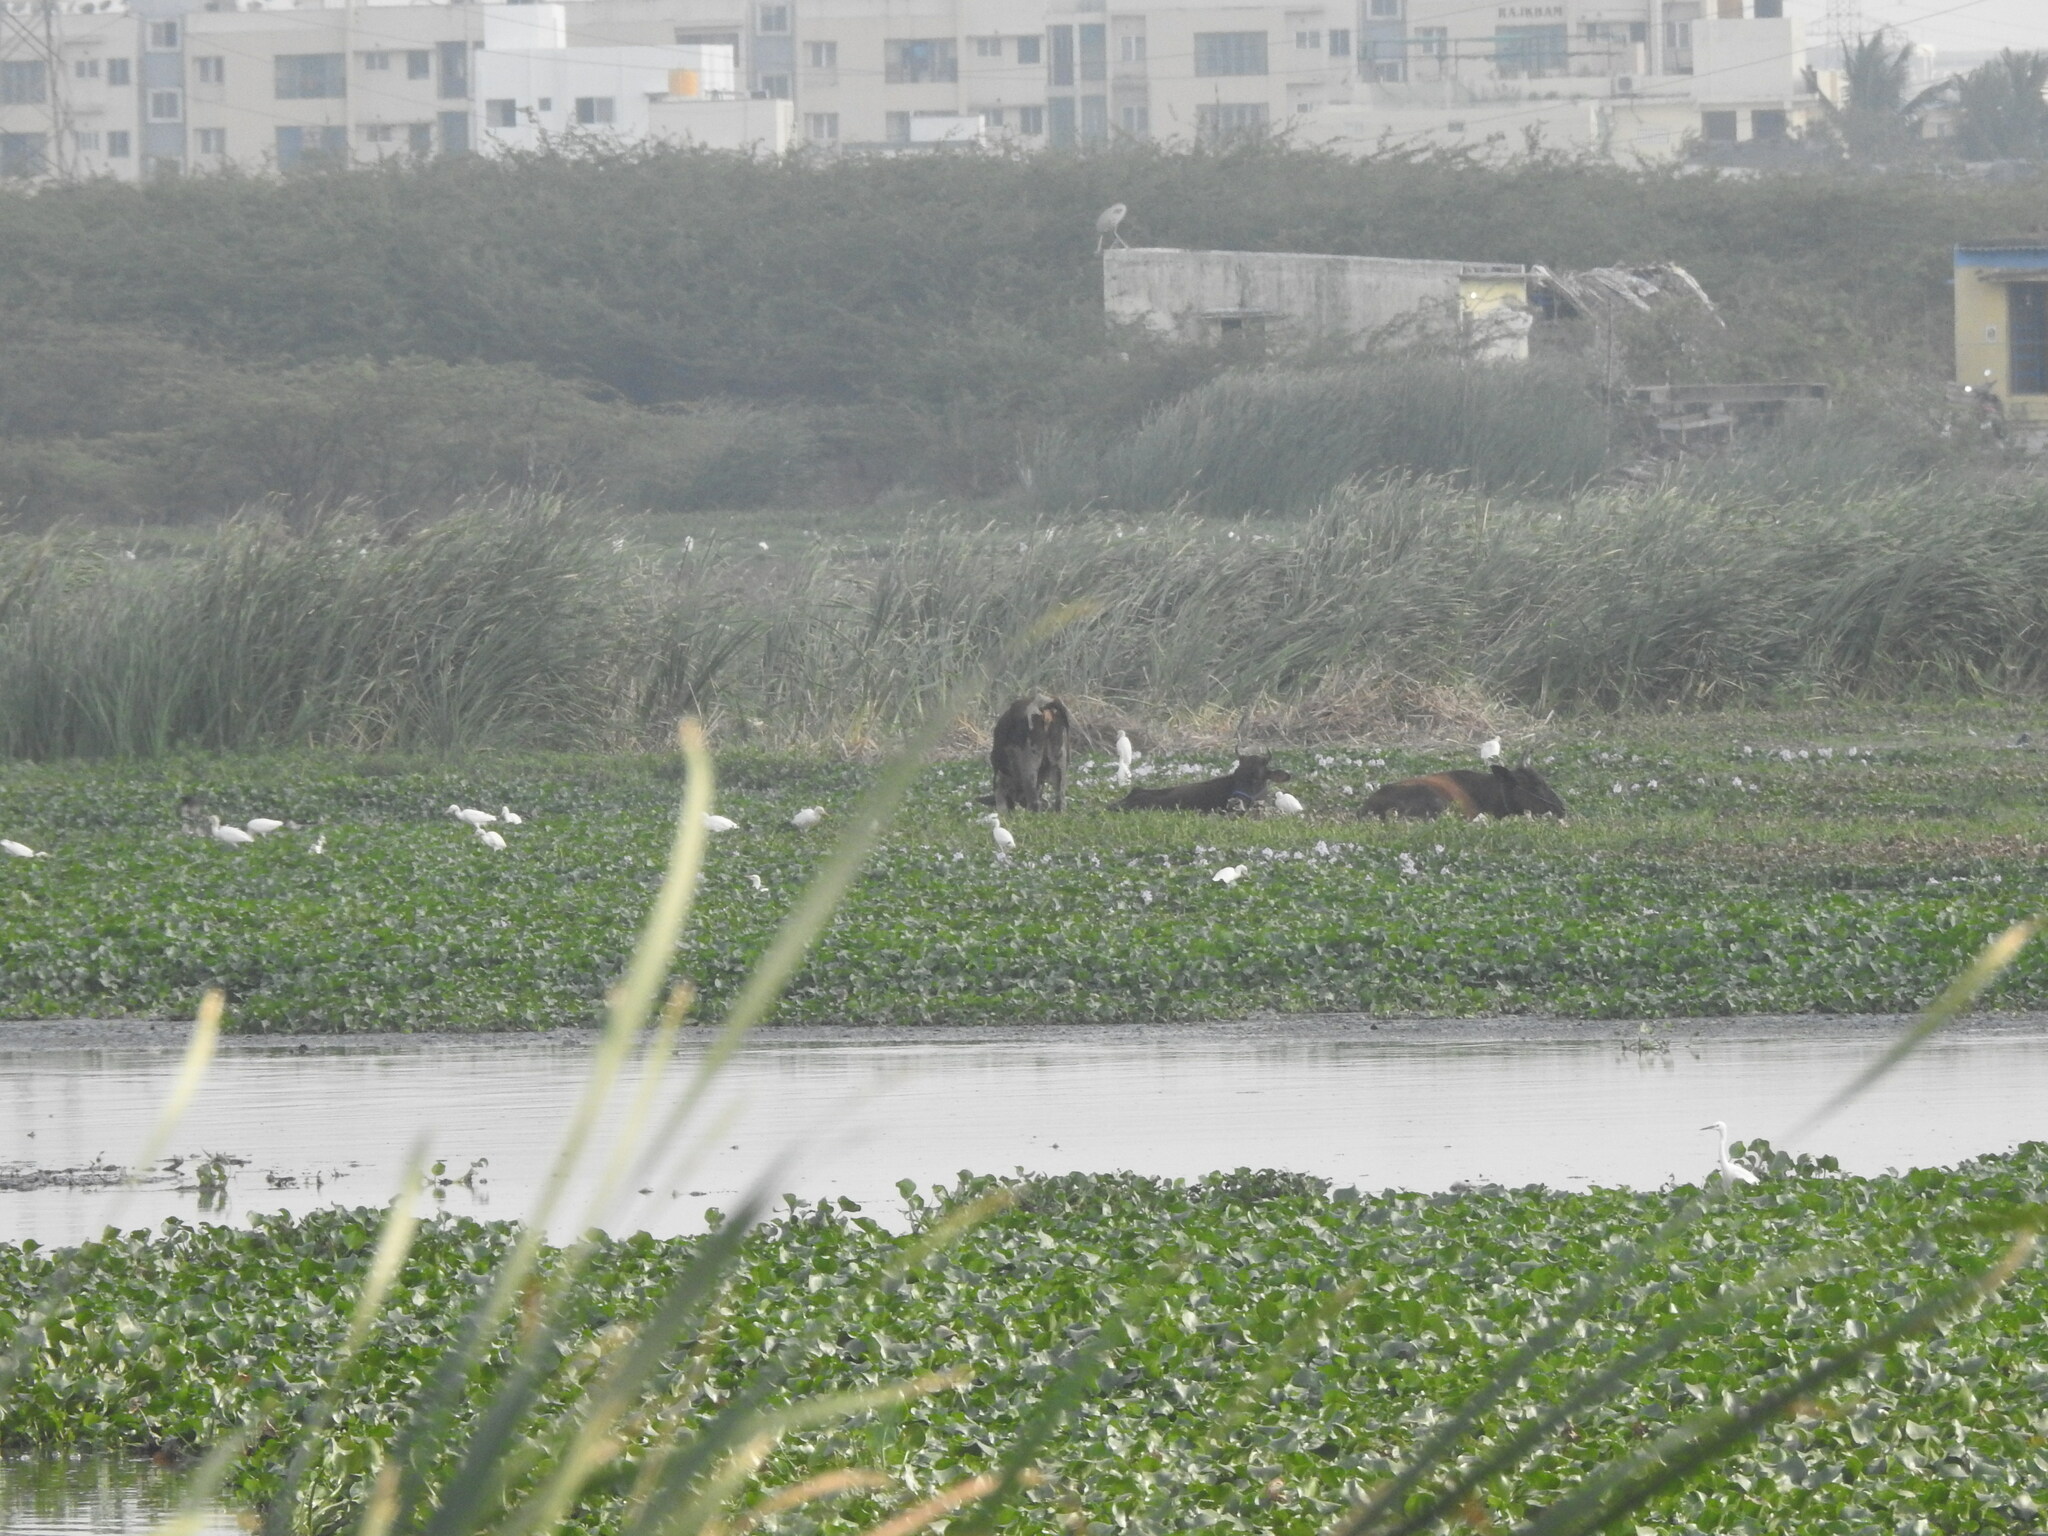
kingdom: Animalia
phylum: Chordata
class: Aves
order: Pelecaniformes
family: Ardeidae
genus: Bubulcus
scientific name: Bubulcus coromandus
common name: Eastern cattle egret
